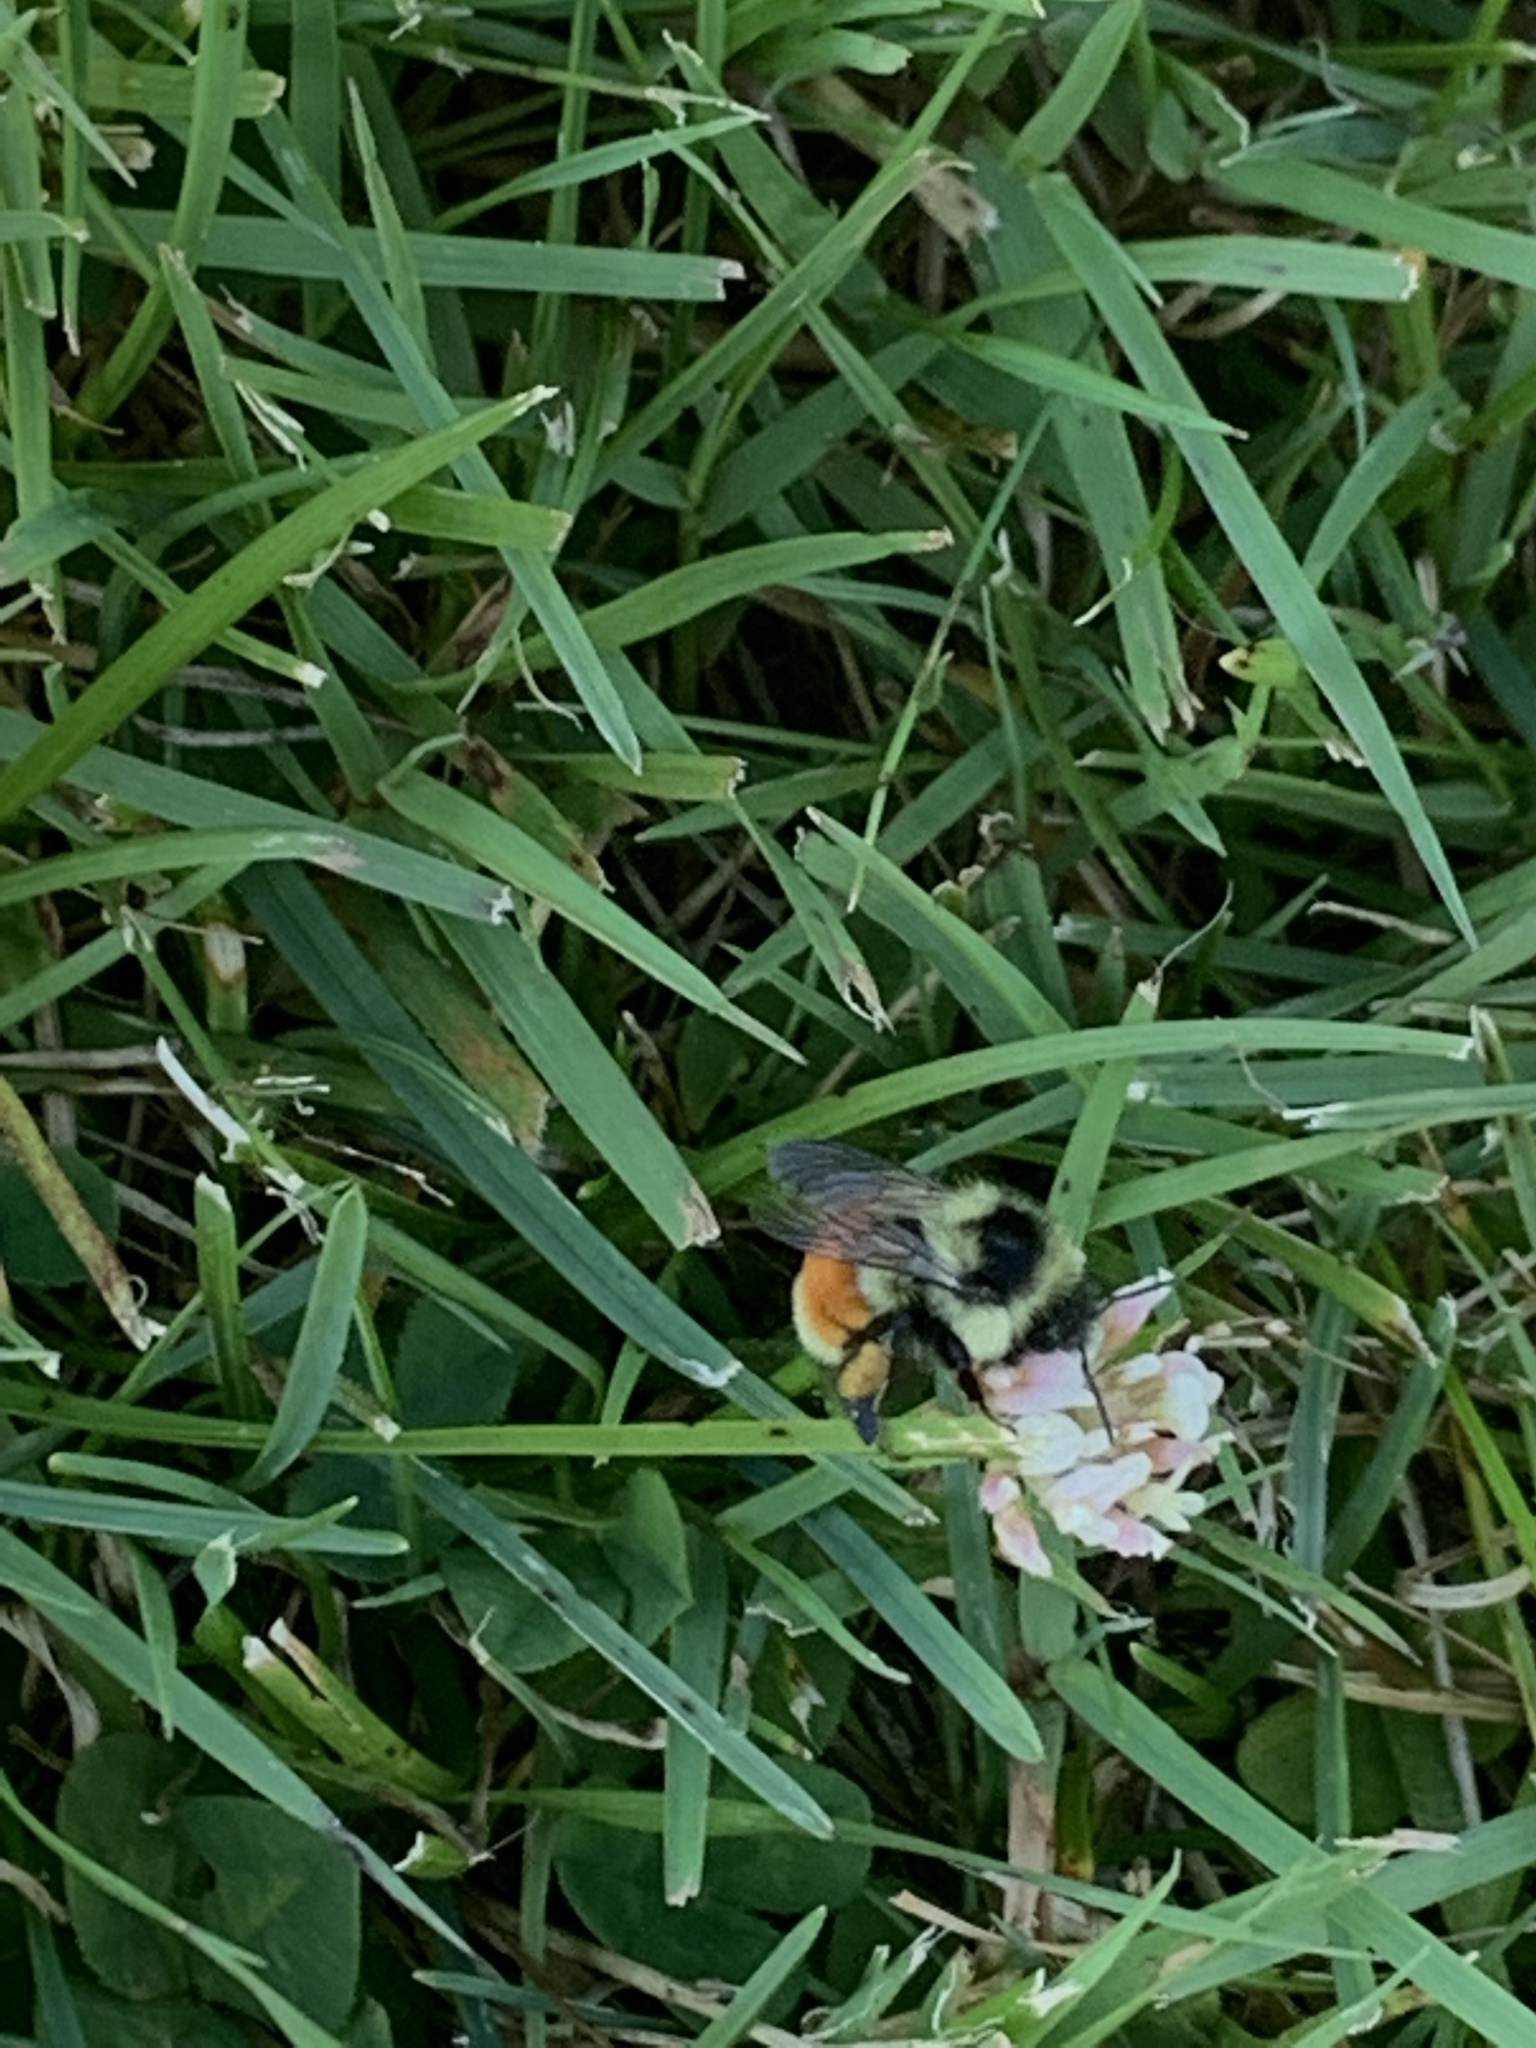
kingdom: Animalia
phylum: Arthropoda
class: Insecta
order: Hymenoptera
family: Apidae
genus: Bombus
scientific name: Bombus ternarius
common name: Tri-colored bumble bee
